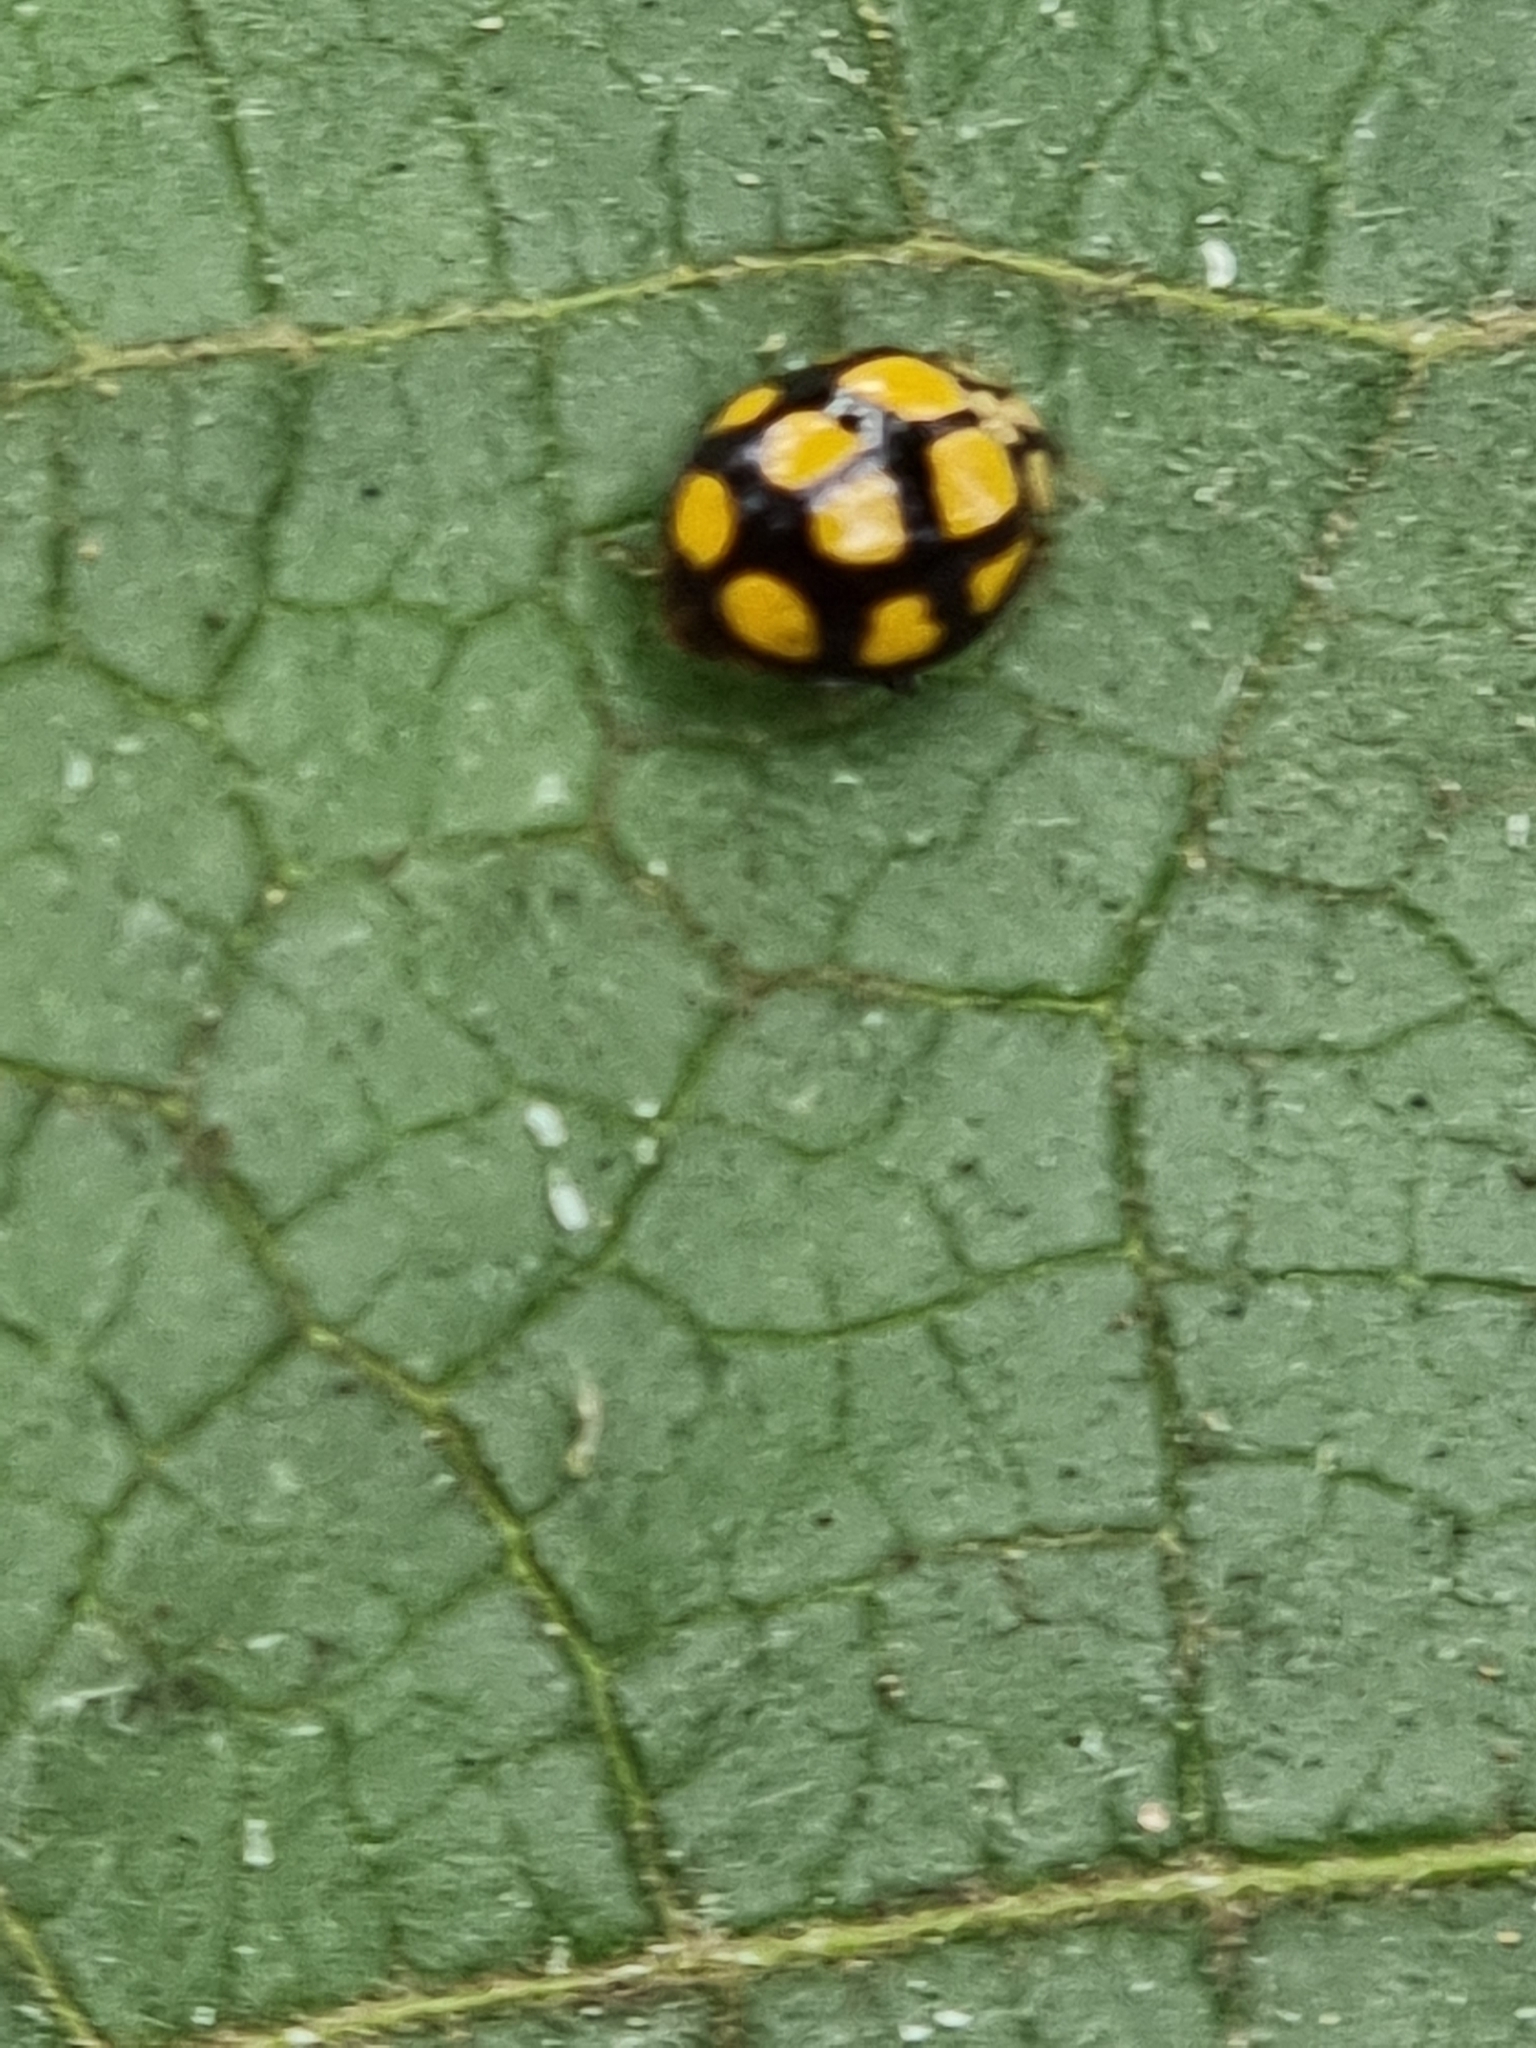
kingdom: Animalia
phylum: Arthropoda
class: Insecta
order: Coleoptera
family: Coccinellidae
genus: Harmonia
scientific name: Harmonia
